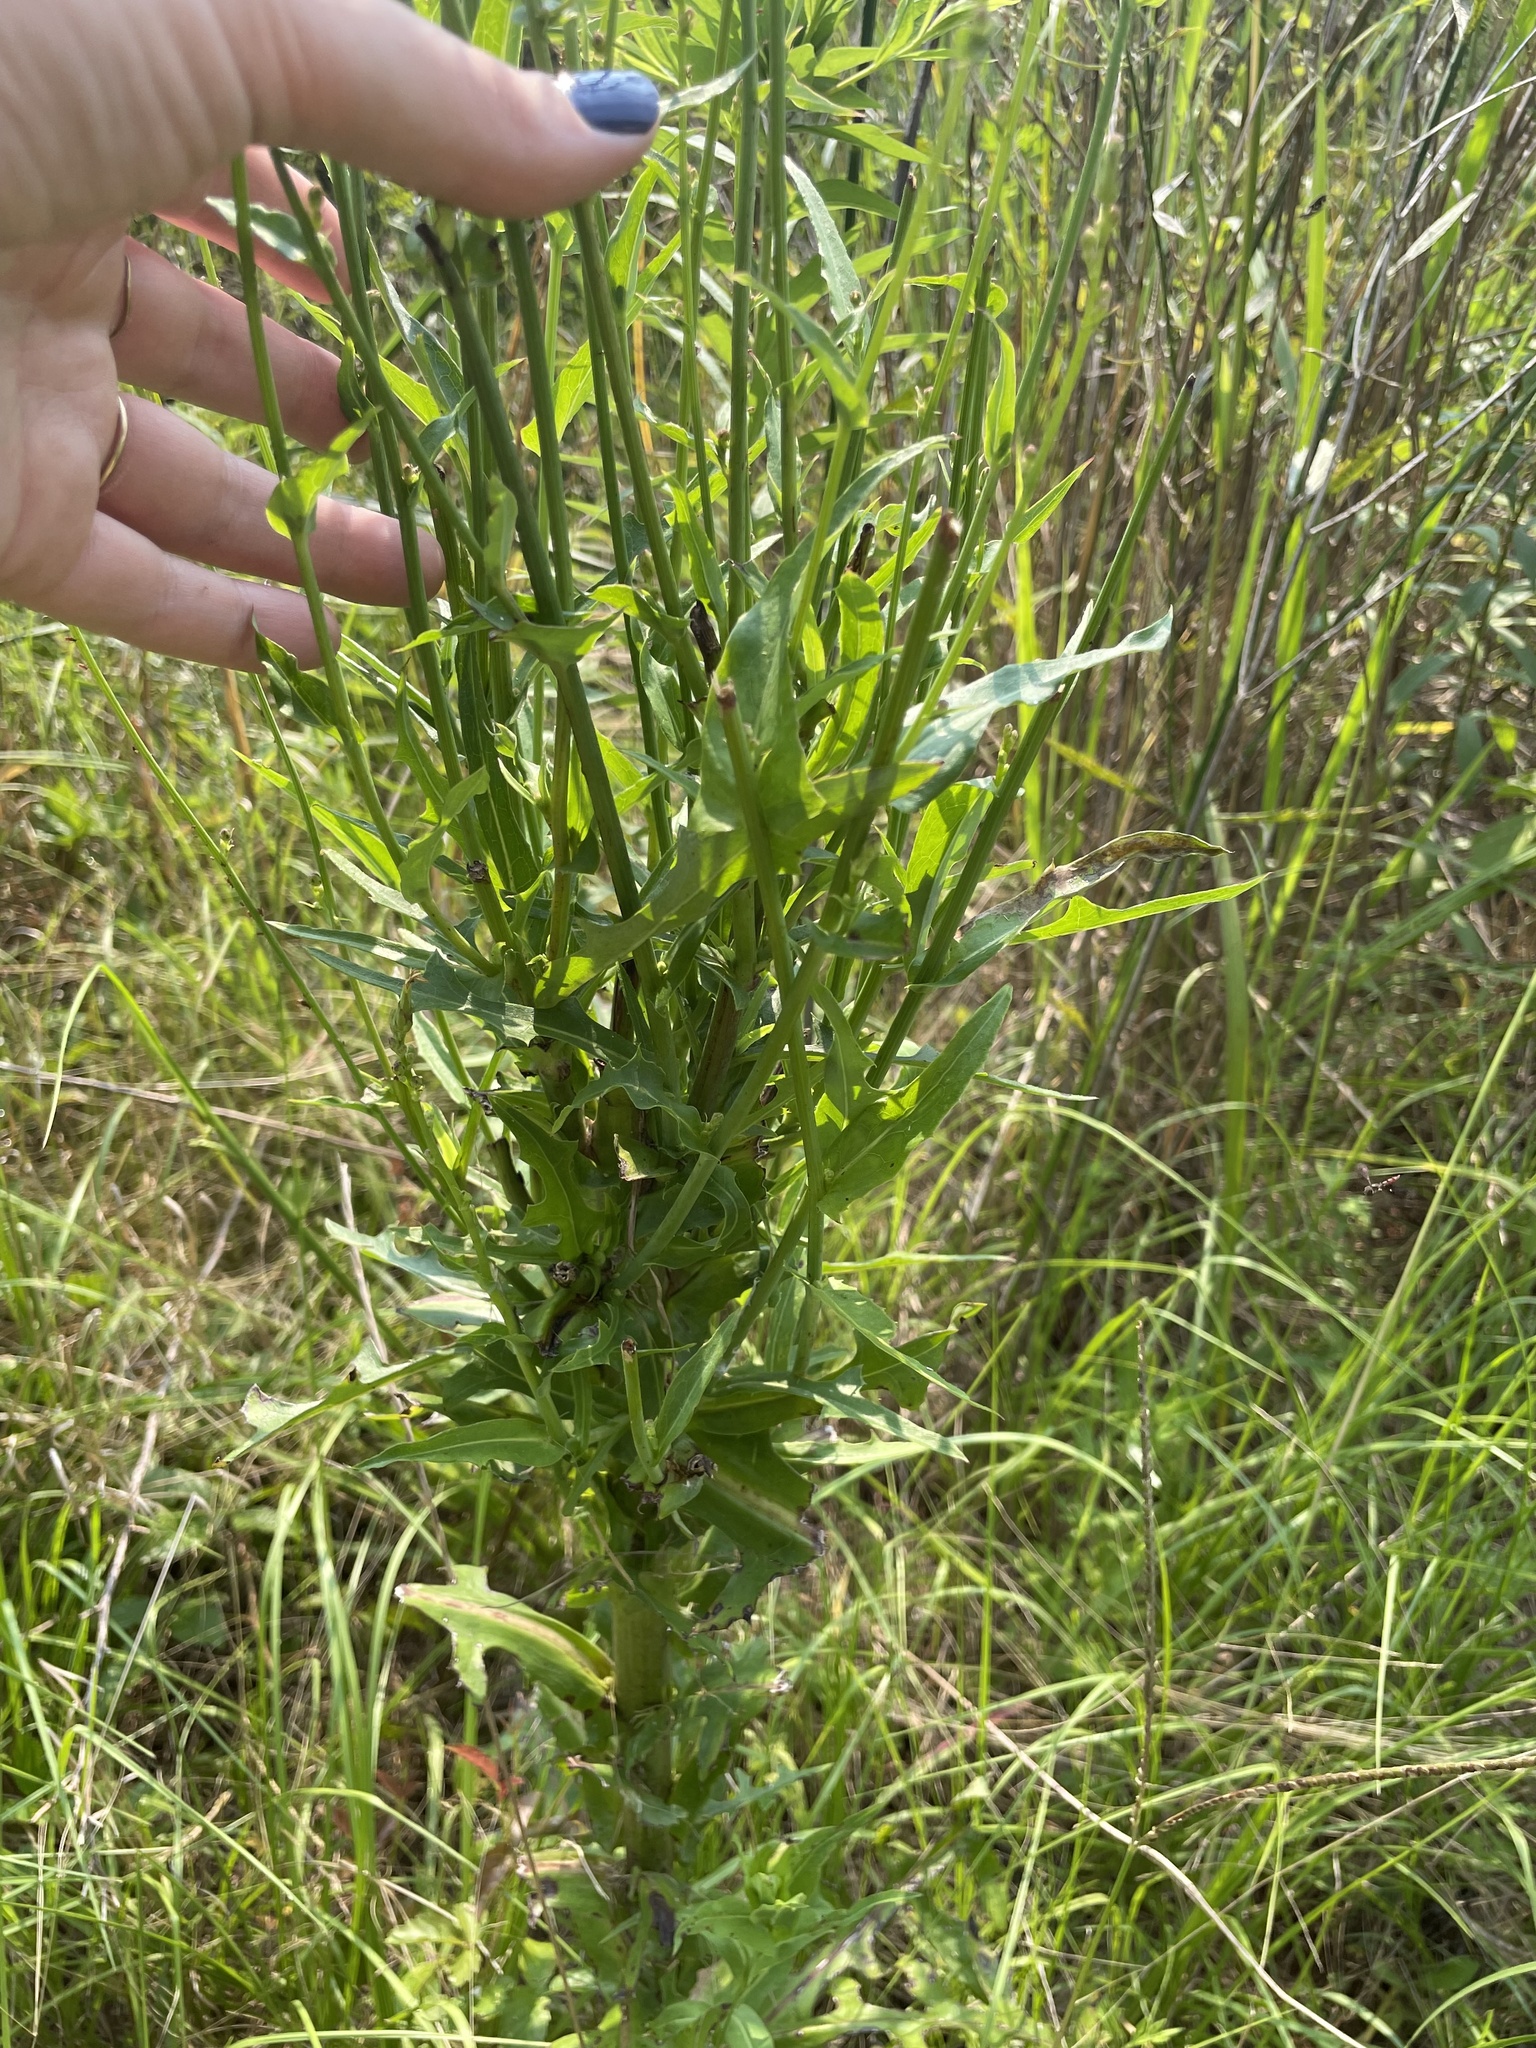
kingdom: Plantae
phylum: Tracheophyta
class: Magnoliopsida
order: Asterales
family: Asteraceae
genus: Lactuca
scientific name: Lactuca canadensis
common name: Canada lettuce
